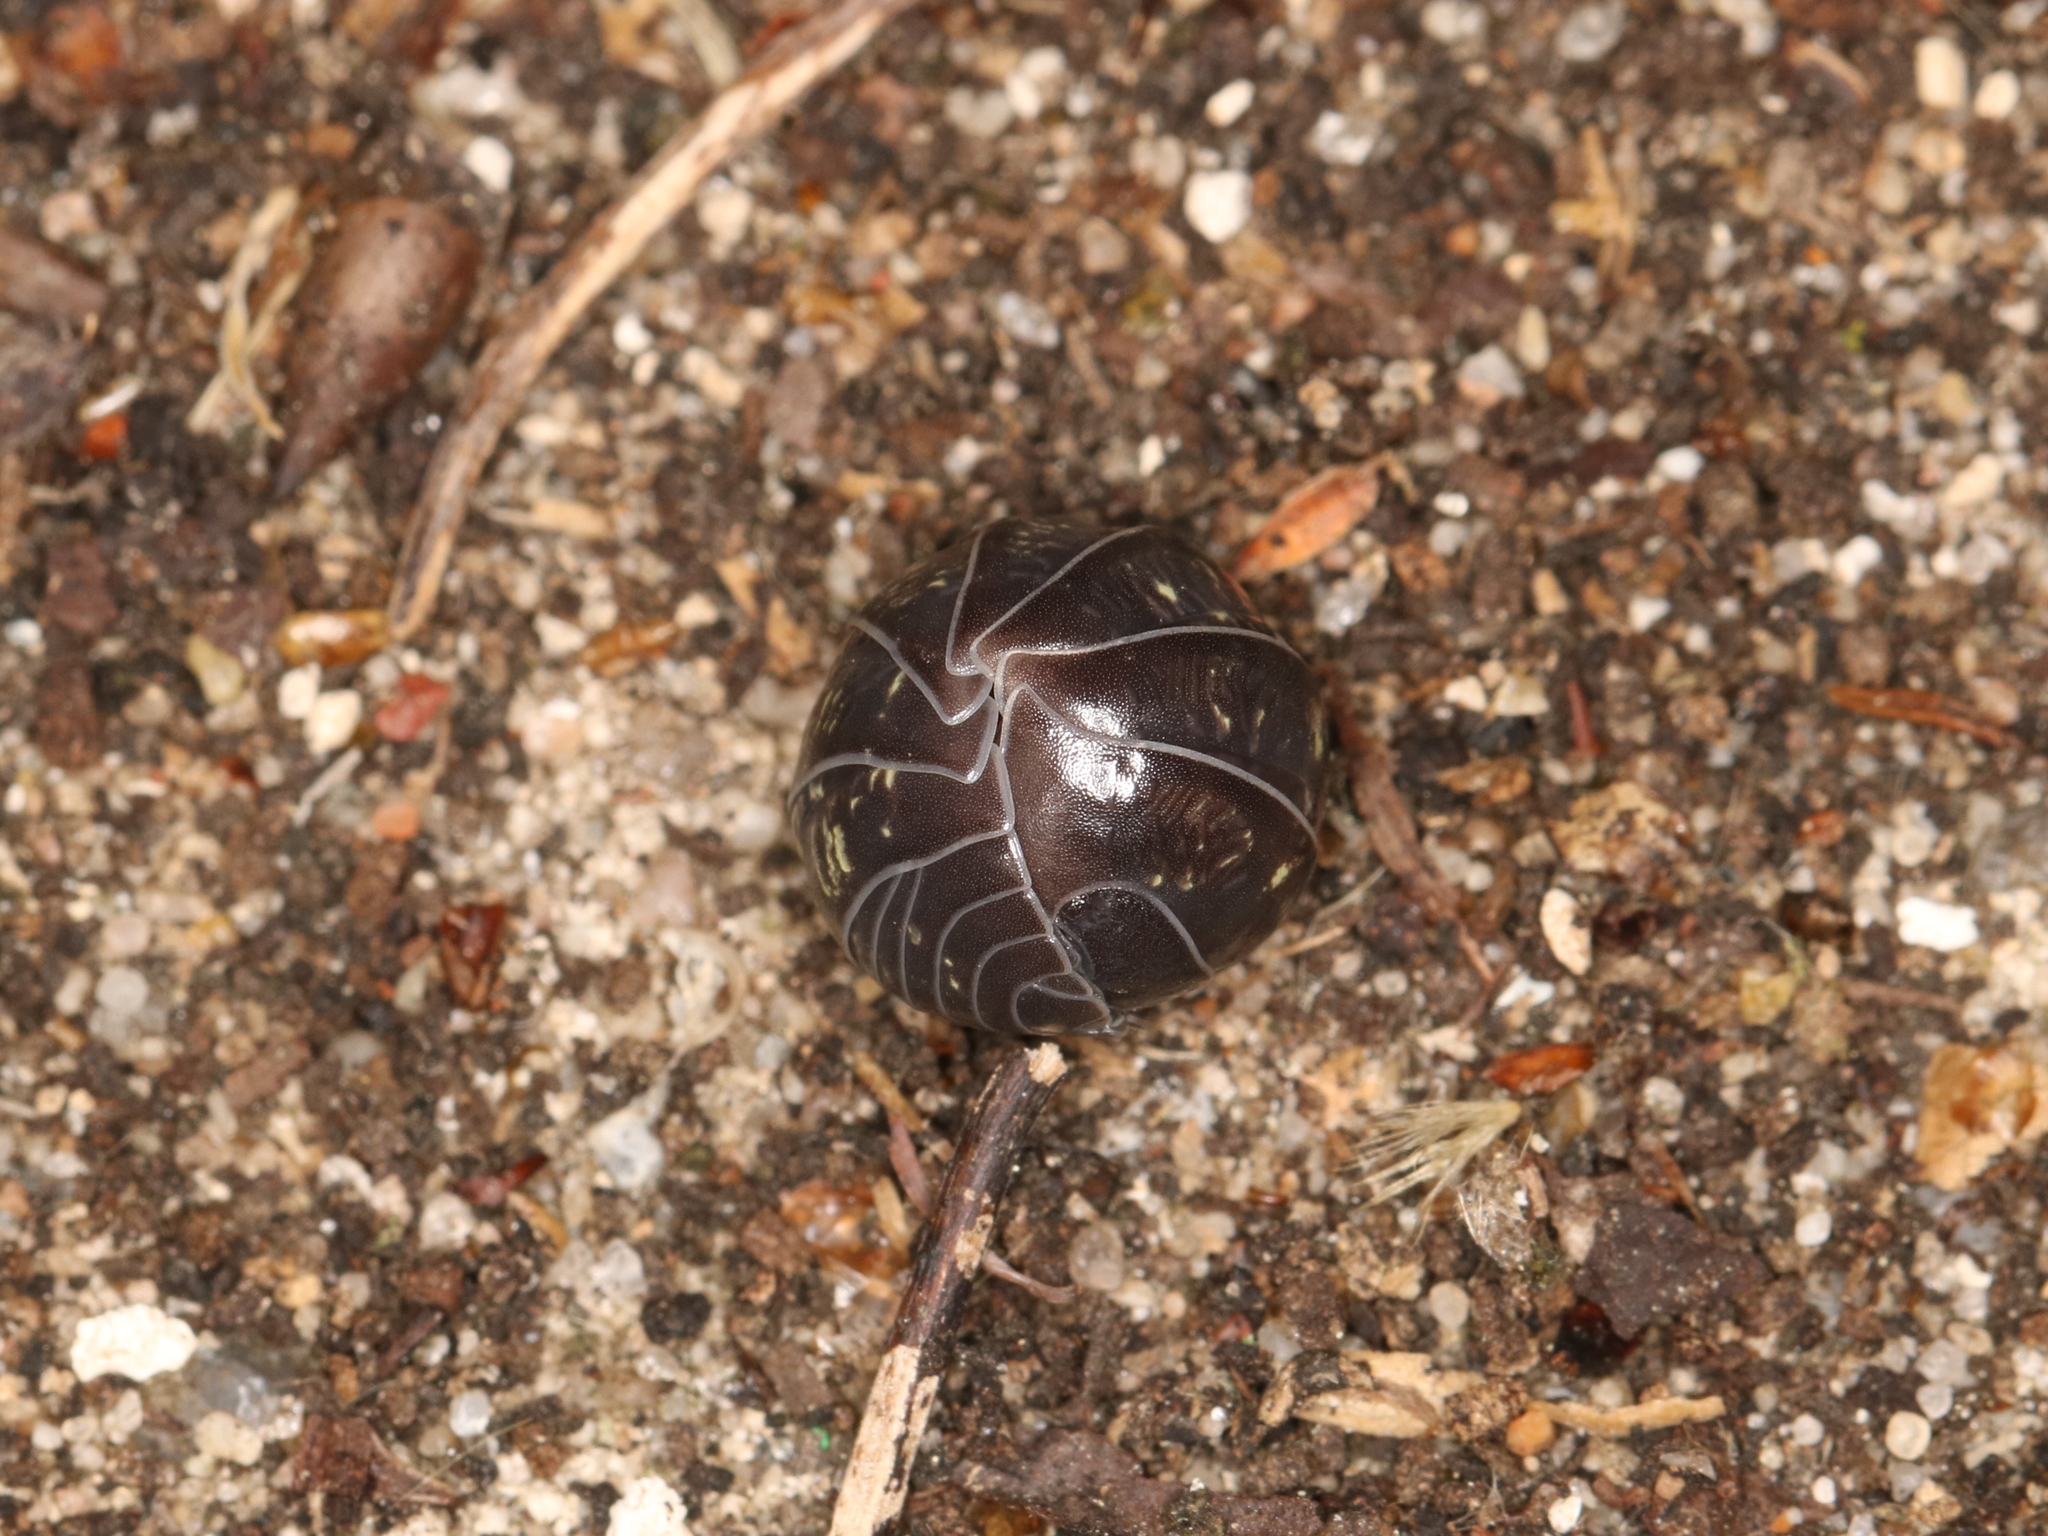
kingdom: Animalia
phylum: Arthropoda
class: Malacostraca
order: Isopoda
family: Armadillidiidae
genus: Armadillidium
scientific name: Armadillidium vulgare
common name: Common pill woodlouse
